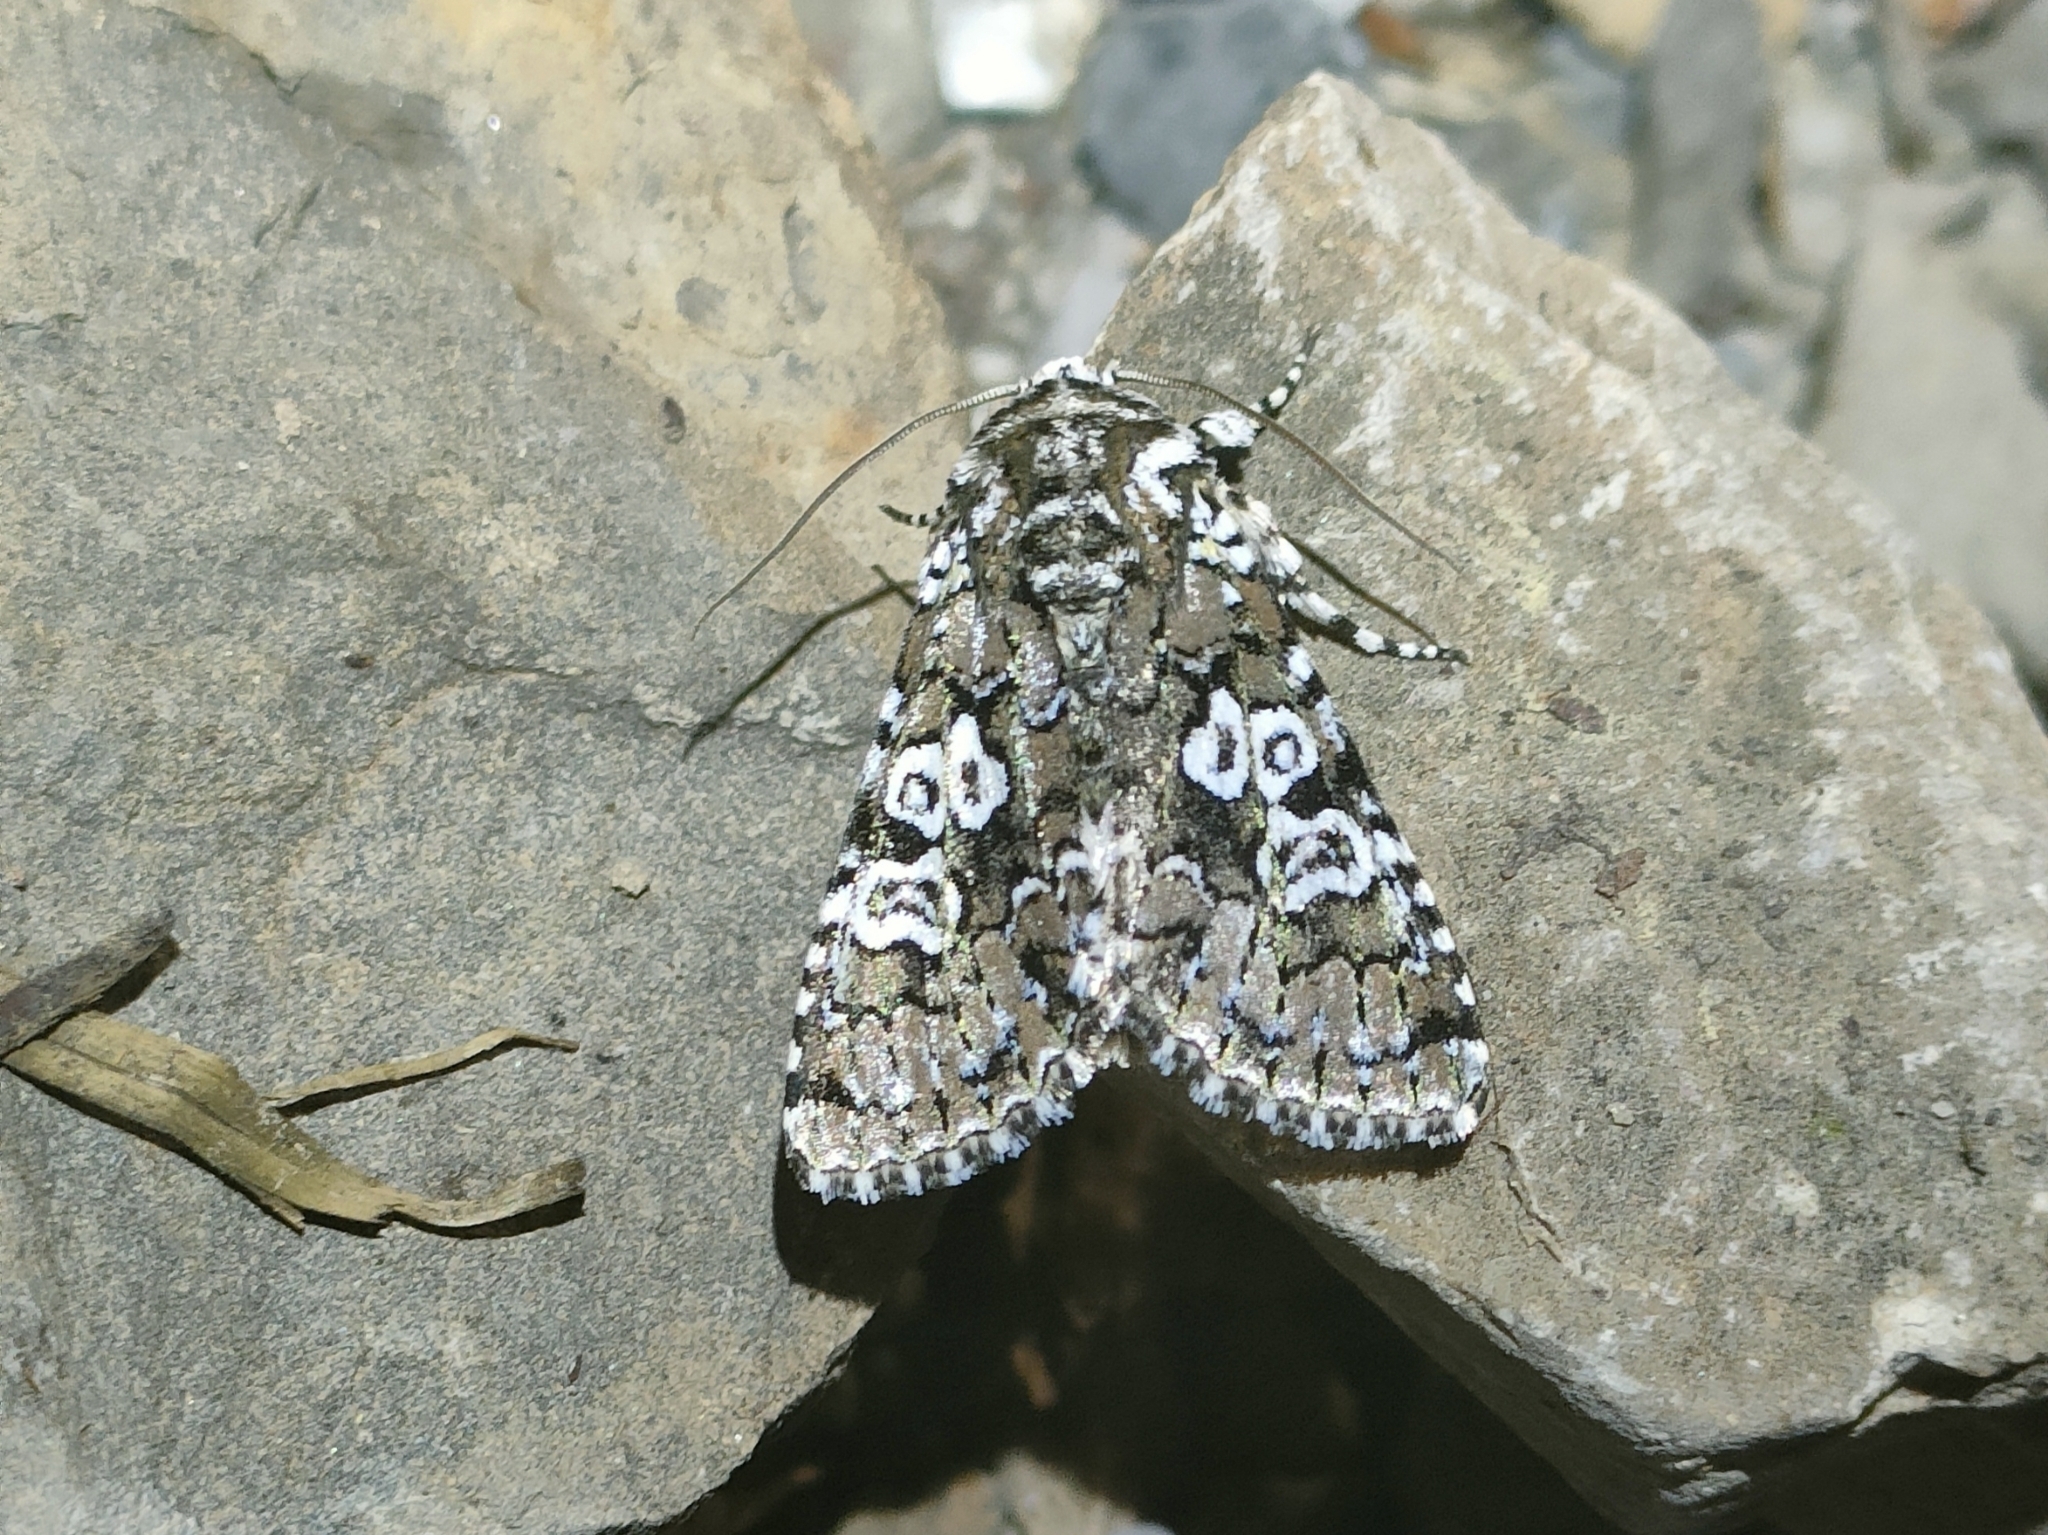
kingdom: Animalia
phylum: Arthropoda
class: Insecta
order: Lepidoptera
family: Noctuidae
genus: Lamprosticta
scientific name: Lamprosticta culta
